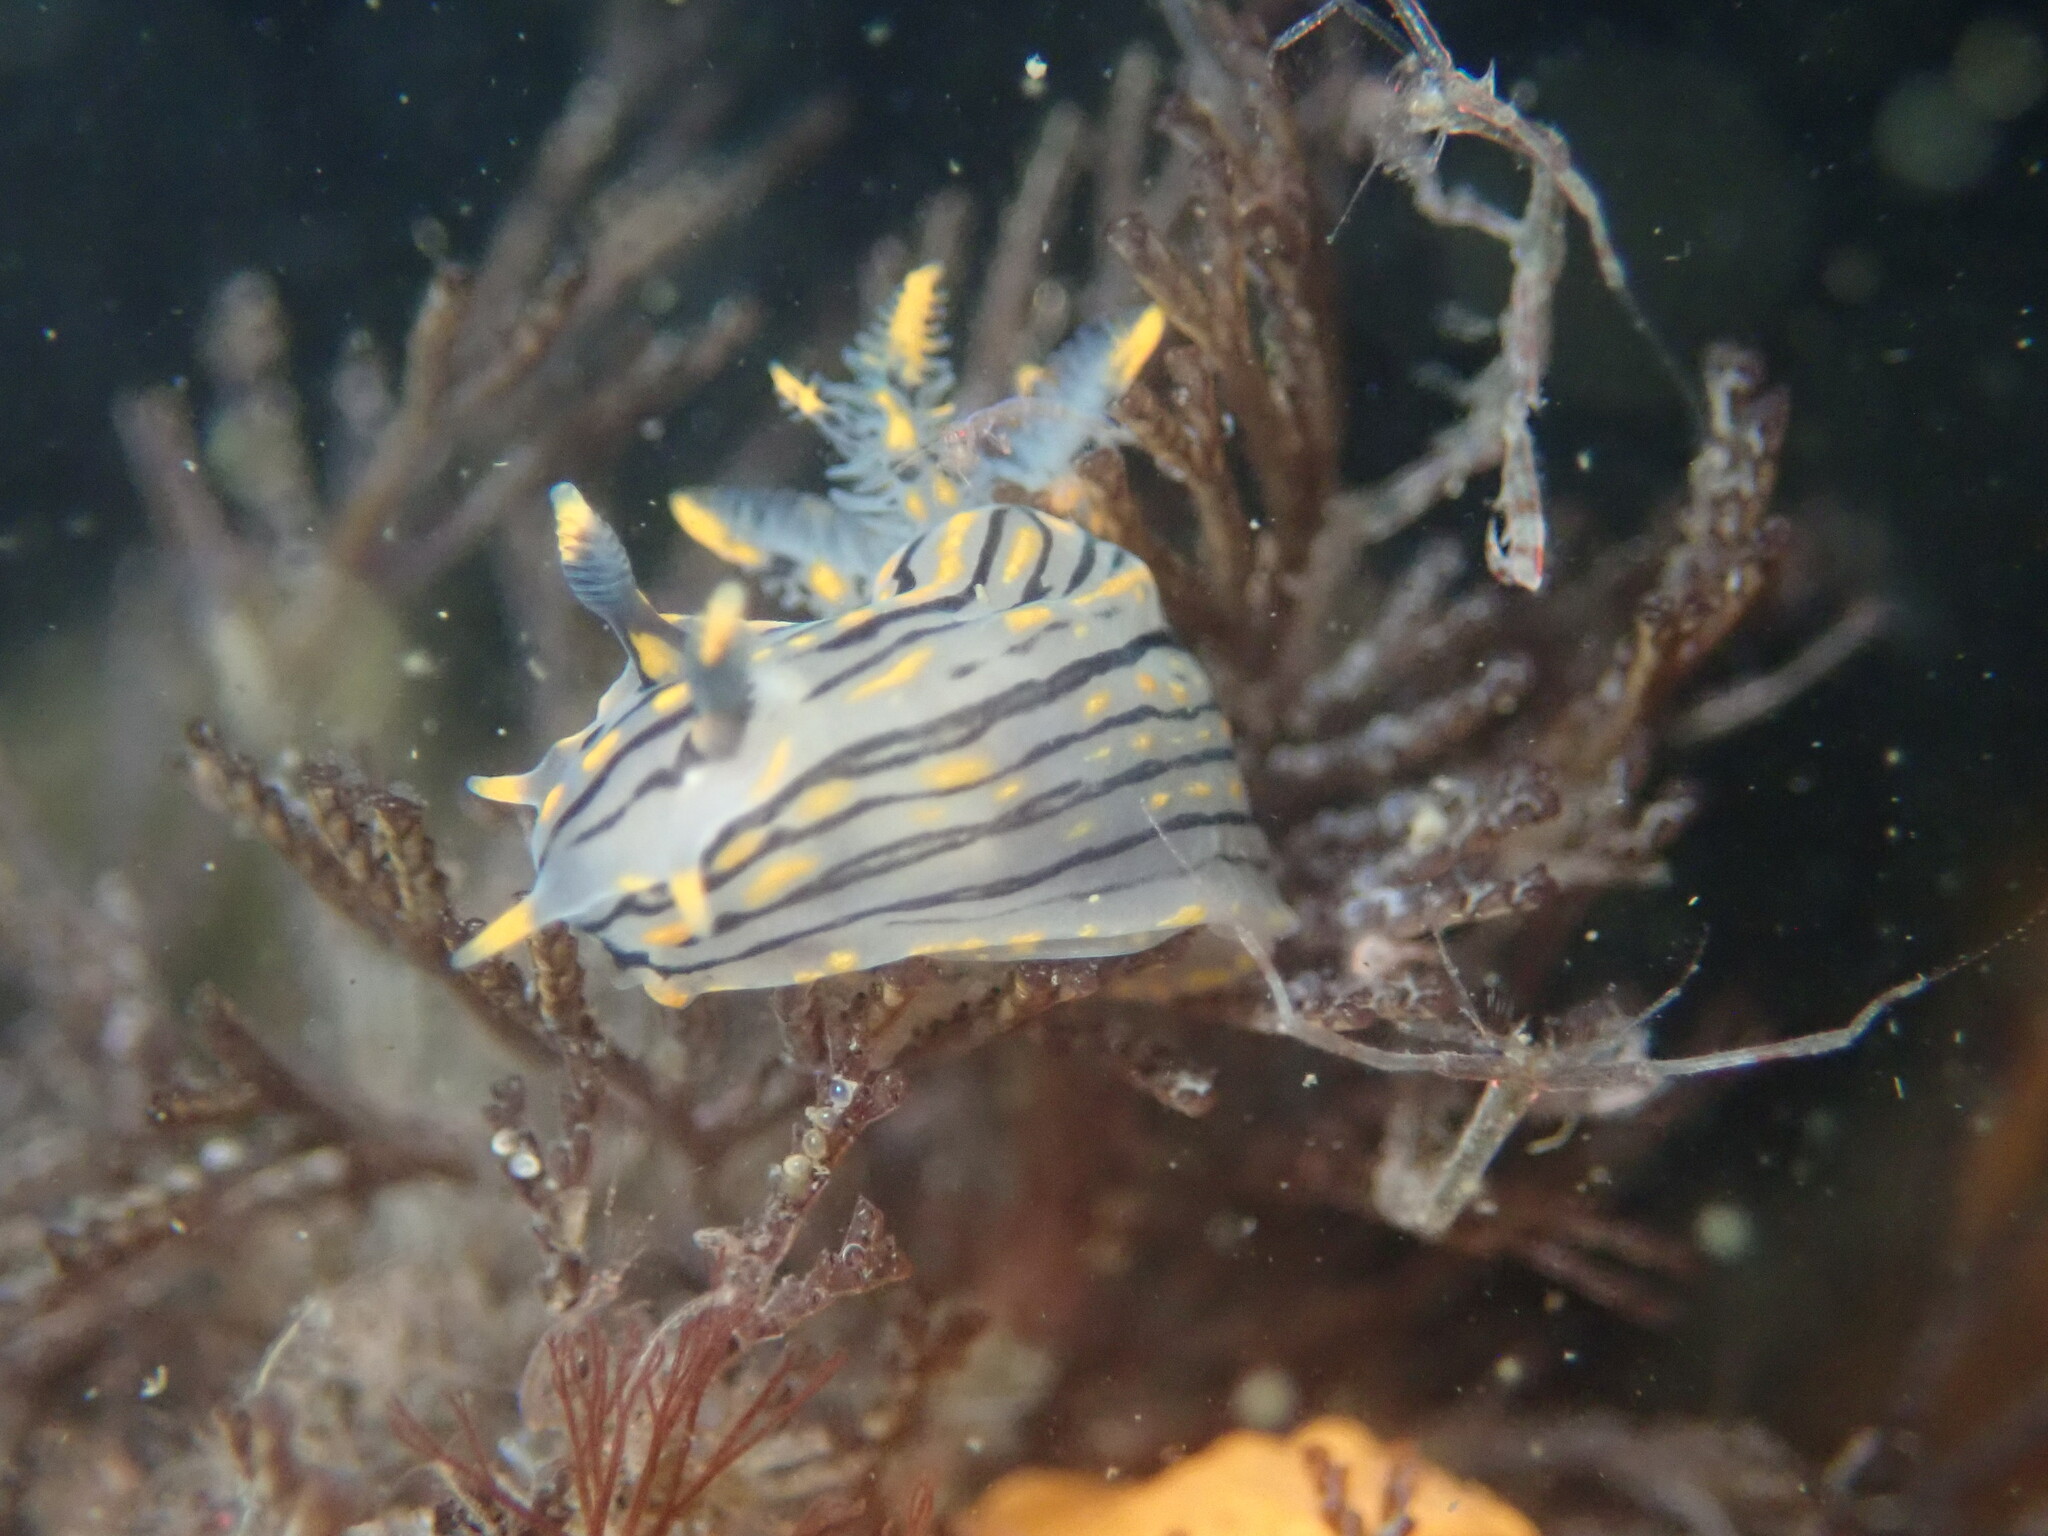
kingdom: Animalia
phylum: Mollusca
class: Gastropoda
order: Nudibranchia
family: Polyceridae
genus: Polycera
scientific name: Polycera atra
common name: Orange-spike polycera
